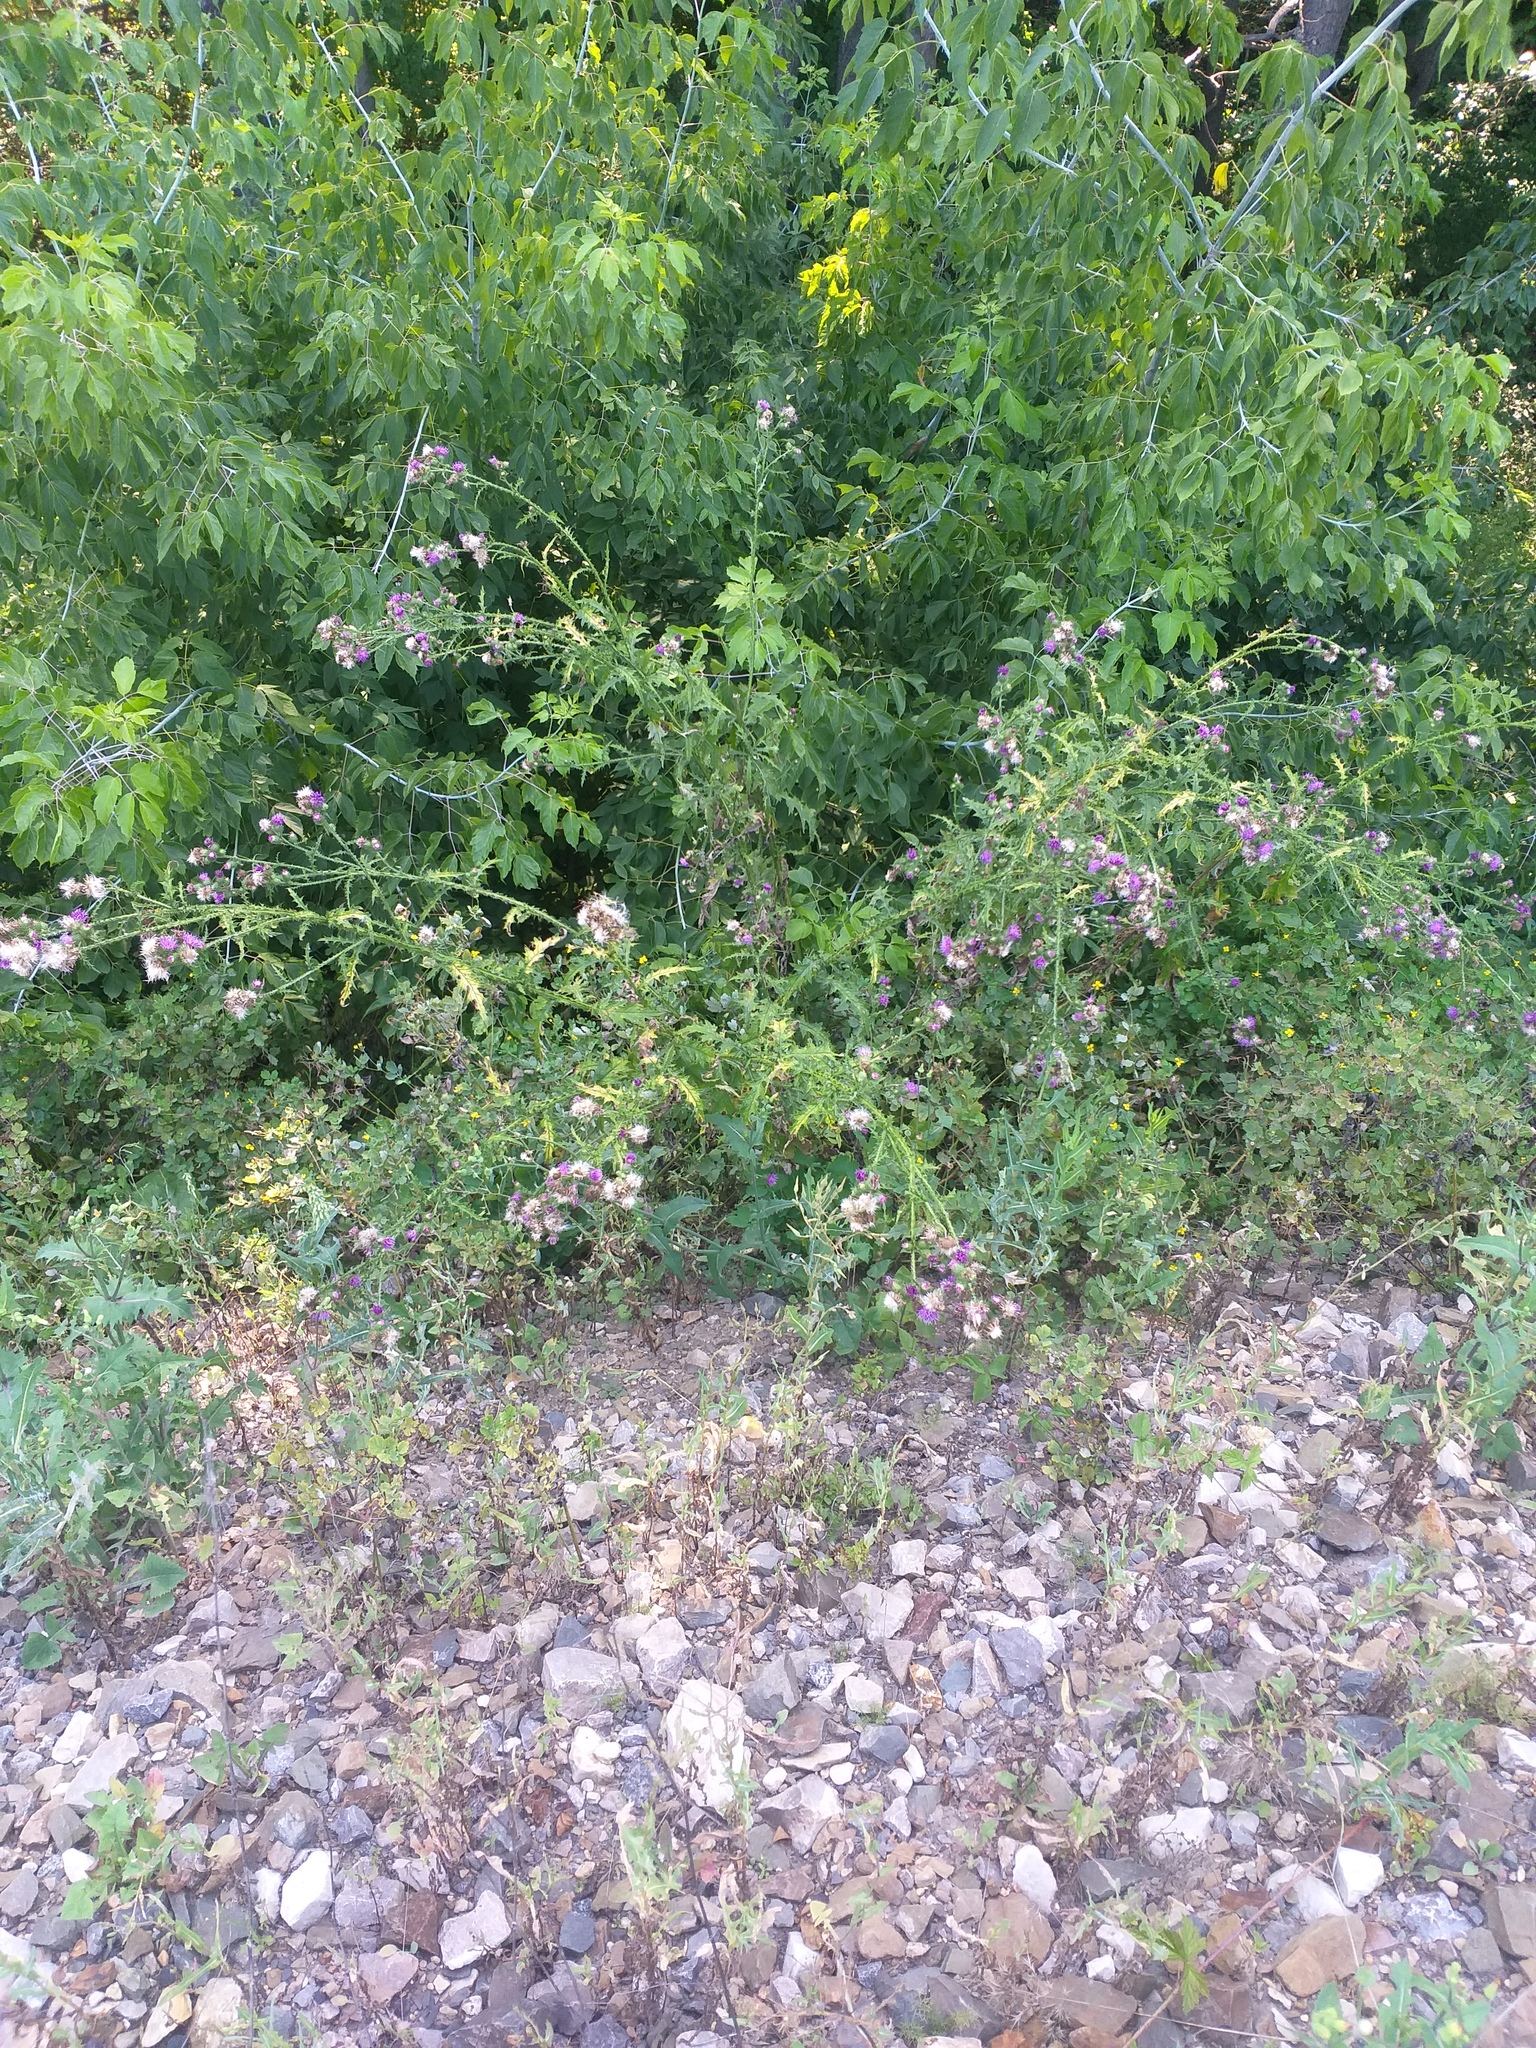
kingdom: Plantae
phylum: Tracheophyta
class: Magnoliopsida
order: Asterales
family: Asteraceae
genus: Carduus
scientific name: Carduus crispus
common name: Welted thistle
